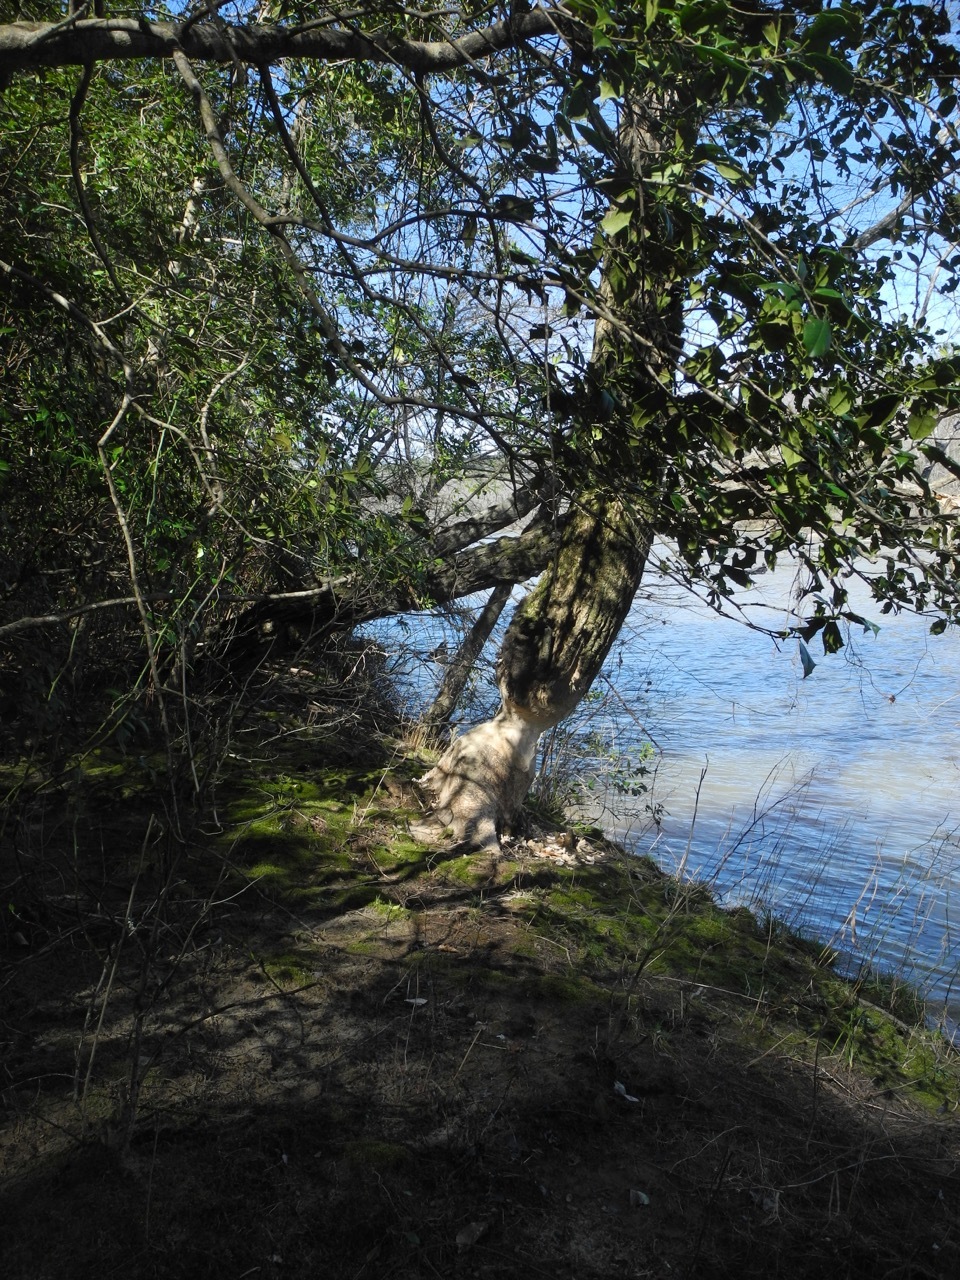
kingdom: Animalia
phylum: Chordata
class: Mammalia
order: Rodentia
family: Castoridae
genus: Castor
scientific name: Castor canadensis
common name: American beaver
